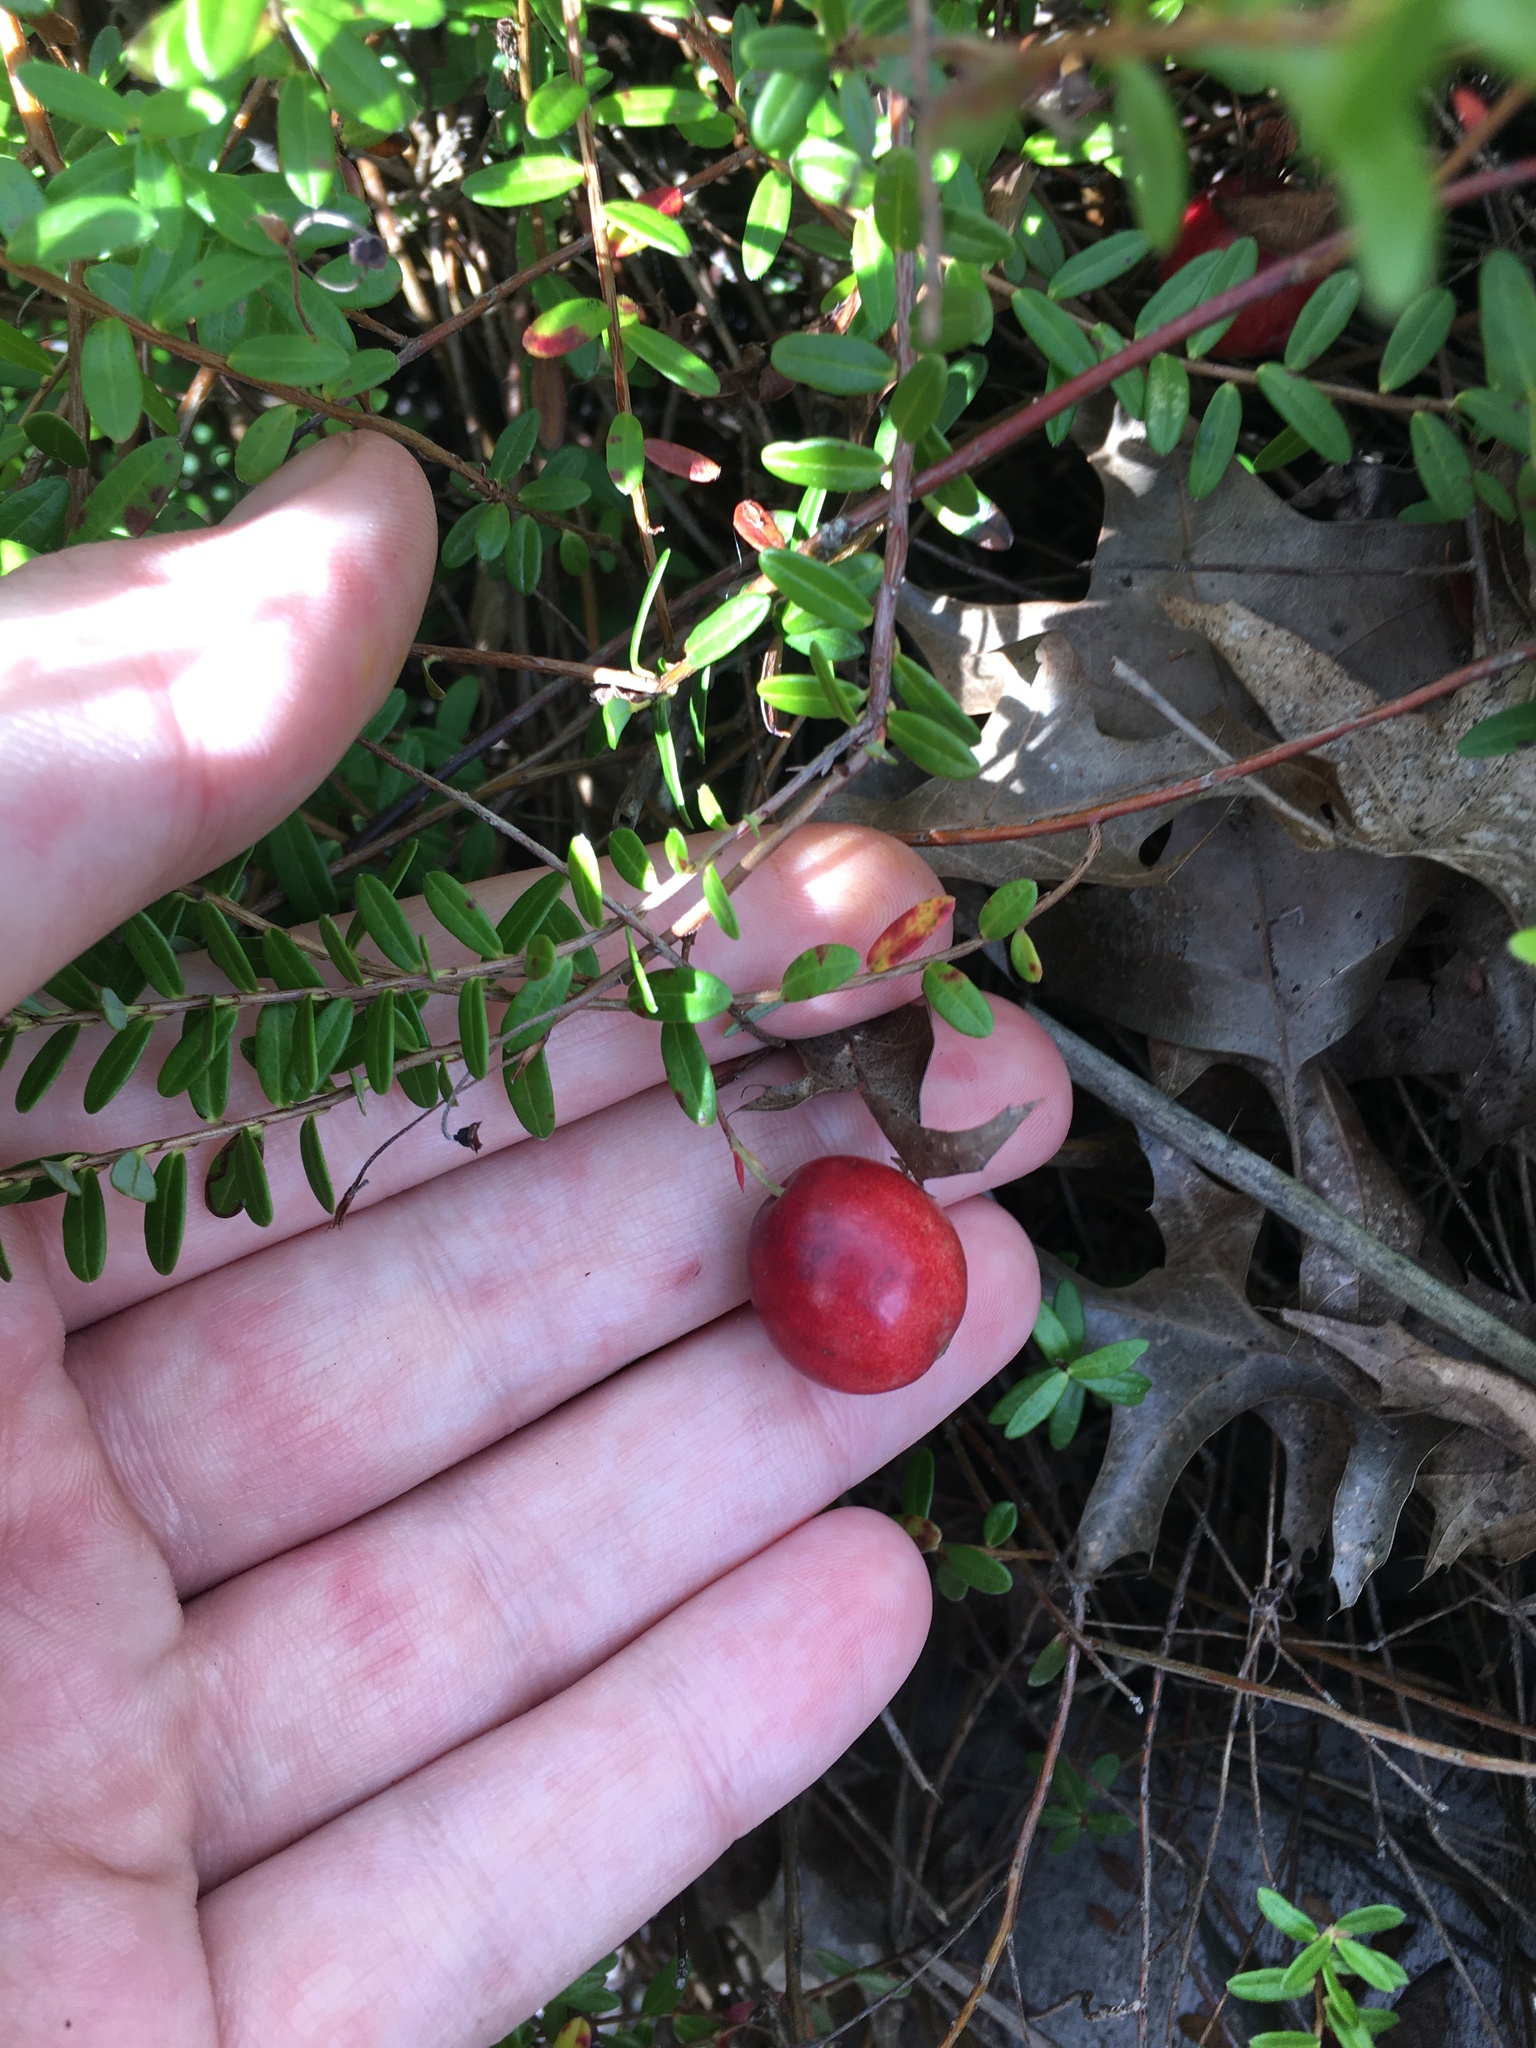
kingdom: Plantae
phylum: Tracheophyta
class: Magnoliopsida
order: Ericales
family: Ericaceae
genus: Vaccinium
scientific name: Vaccinium macrocarpon
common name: American cranberry
